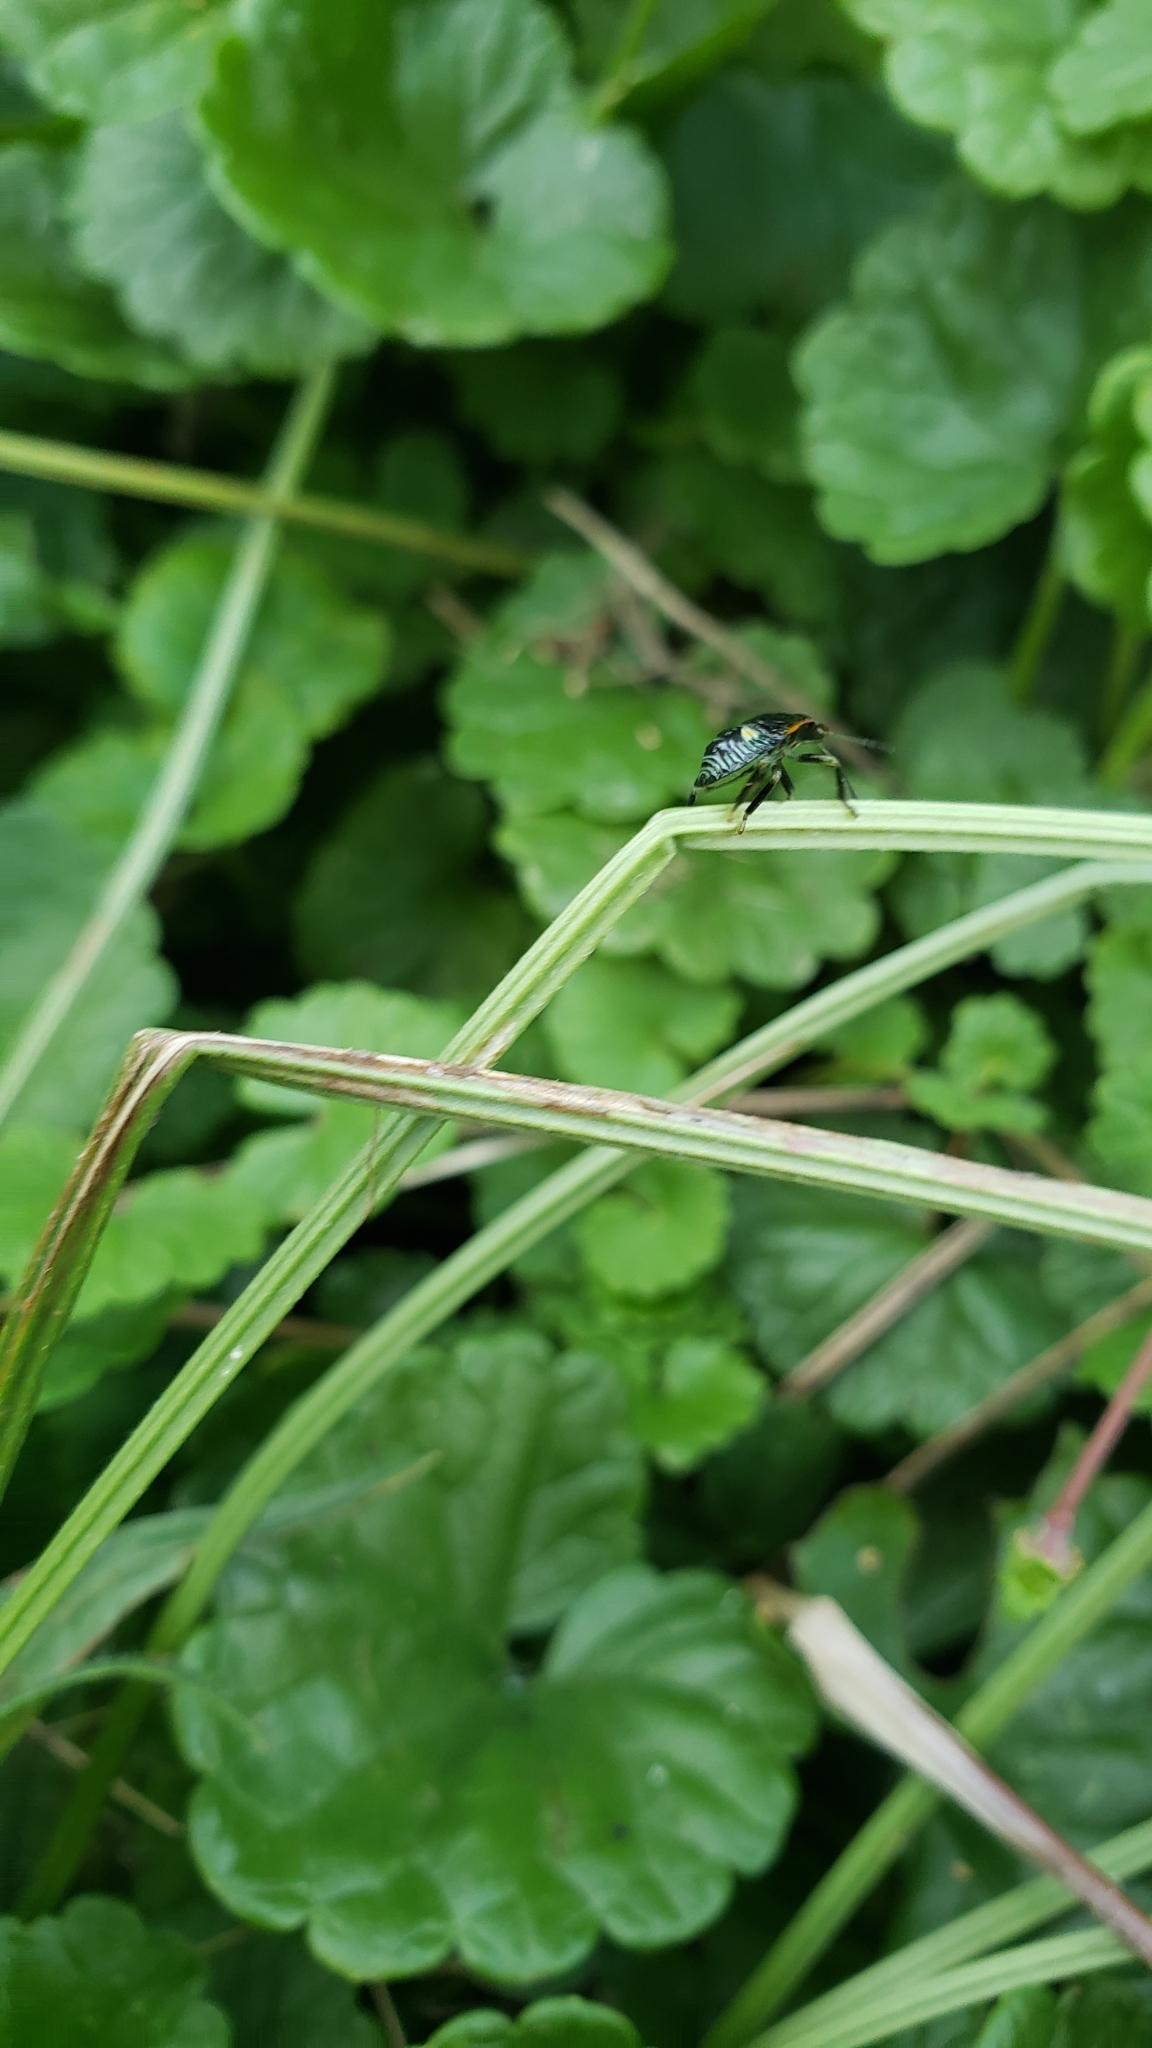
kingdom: Animalia
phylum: Arthropoda
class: Insecta
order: Hemiptera
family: Pentatomidae
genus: Chinavia
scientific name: Chinavia hilaris
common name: Green stink bug
